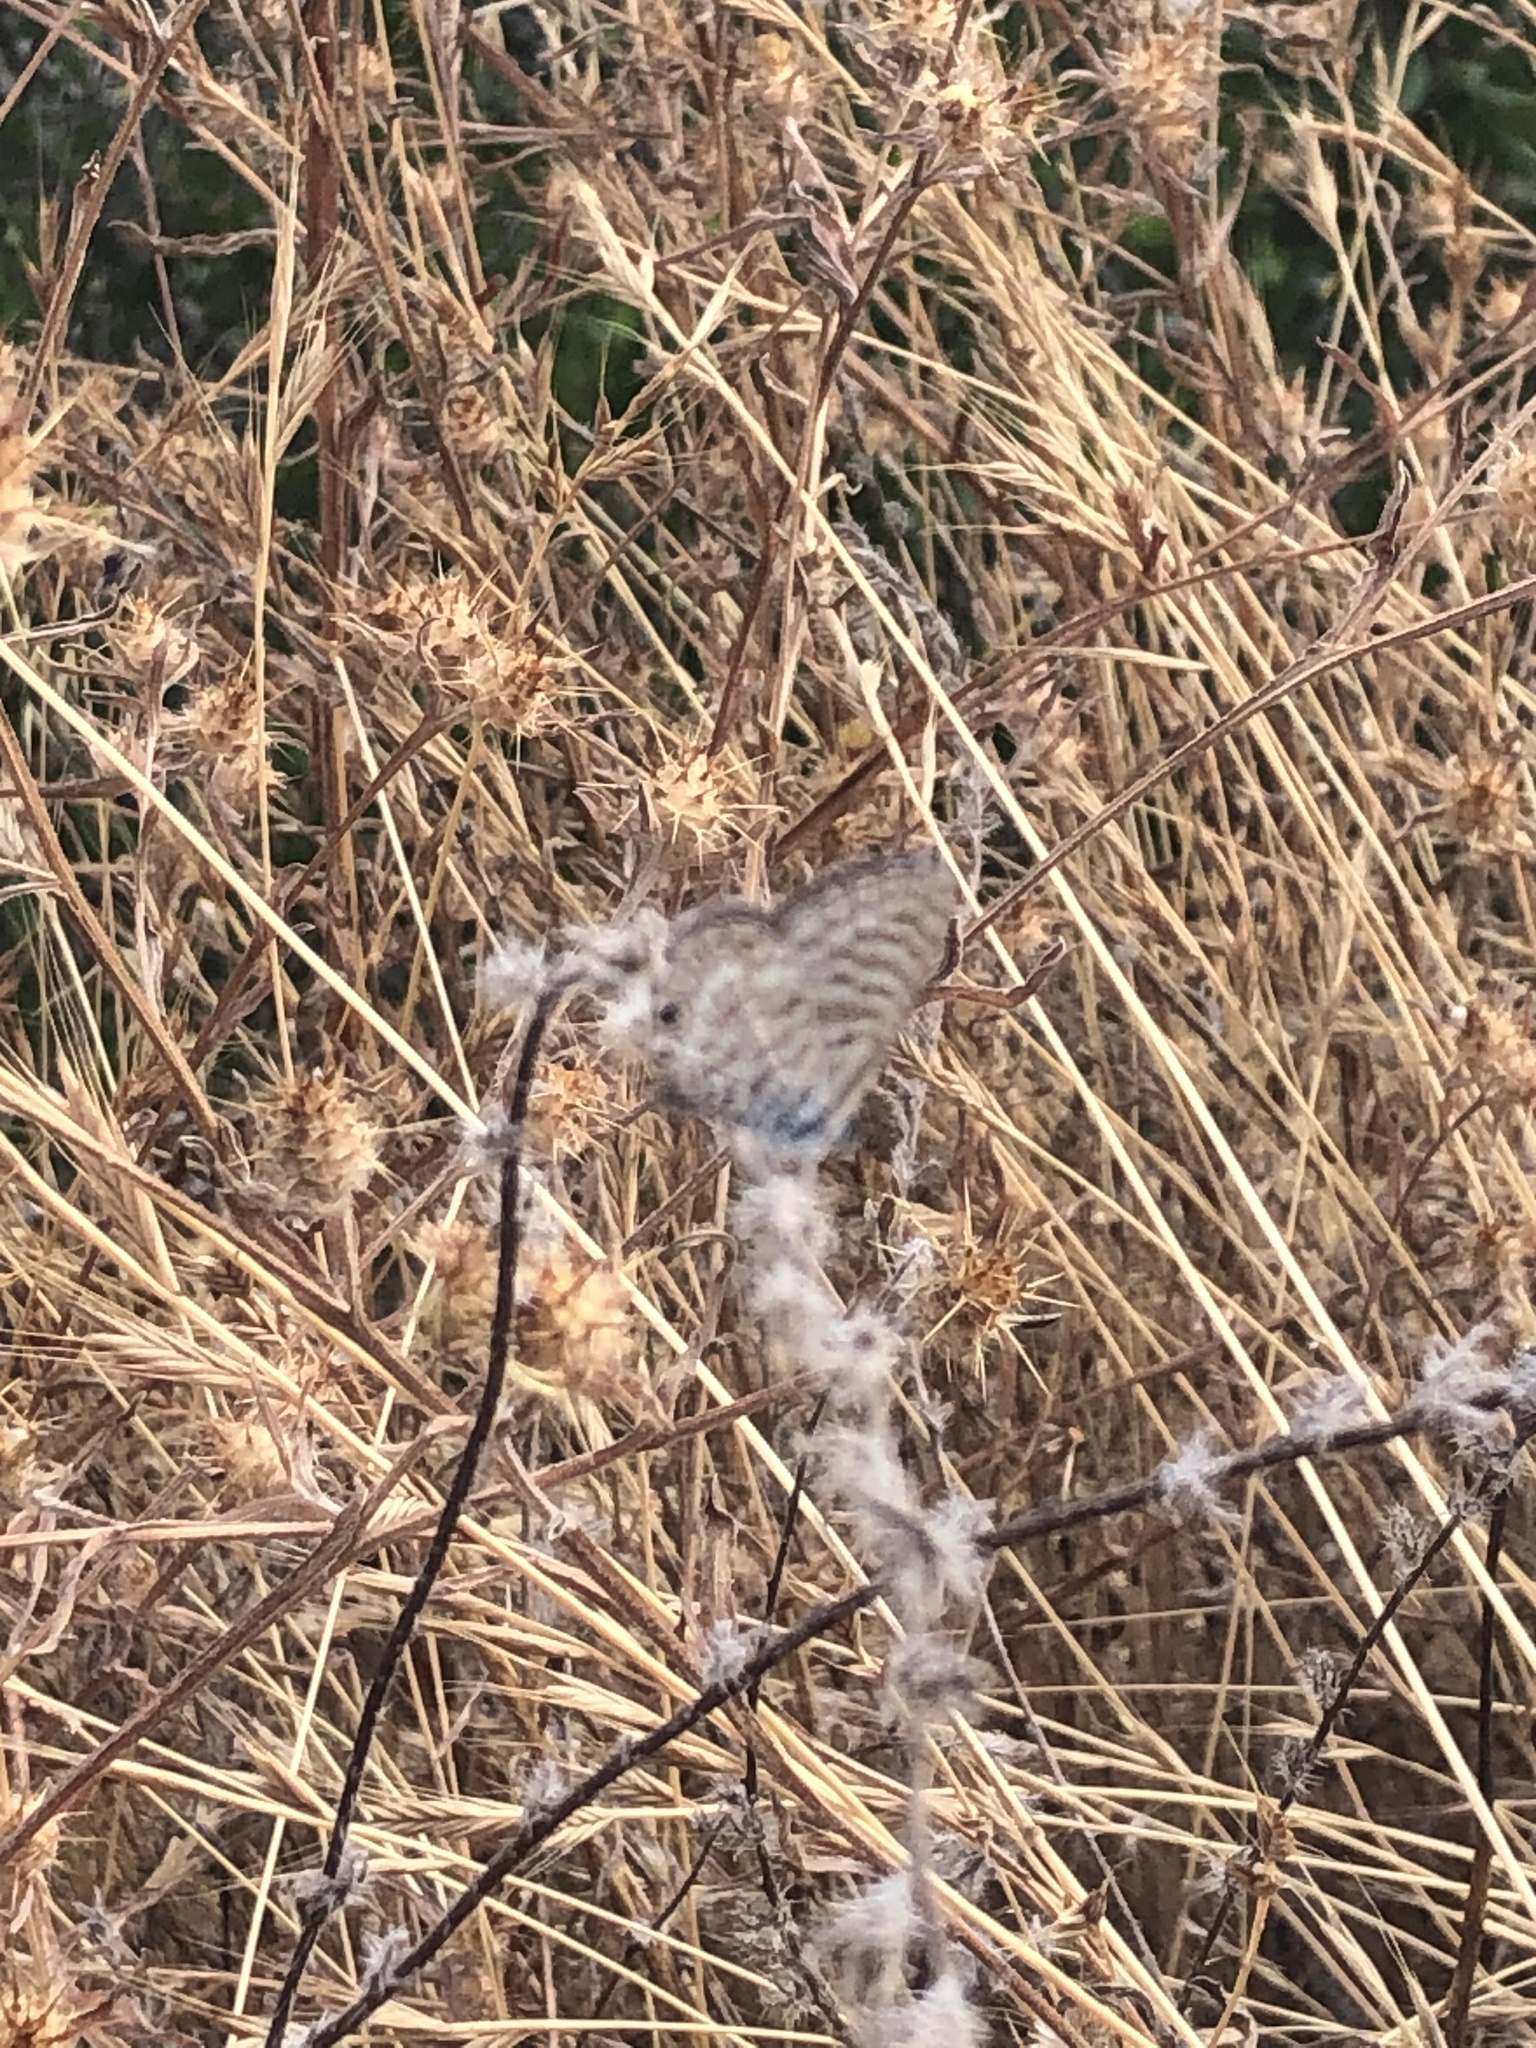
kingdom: Animalia
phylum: Arthropoda
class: Insecta
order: Lepidoptera
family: Lycaenidae
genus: Leptotes
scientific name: Leptotes marina
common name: Marine blue
